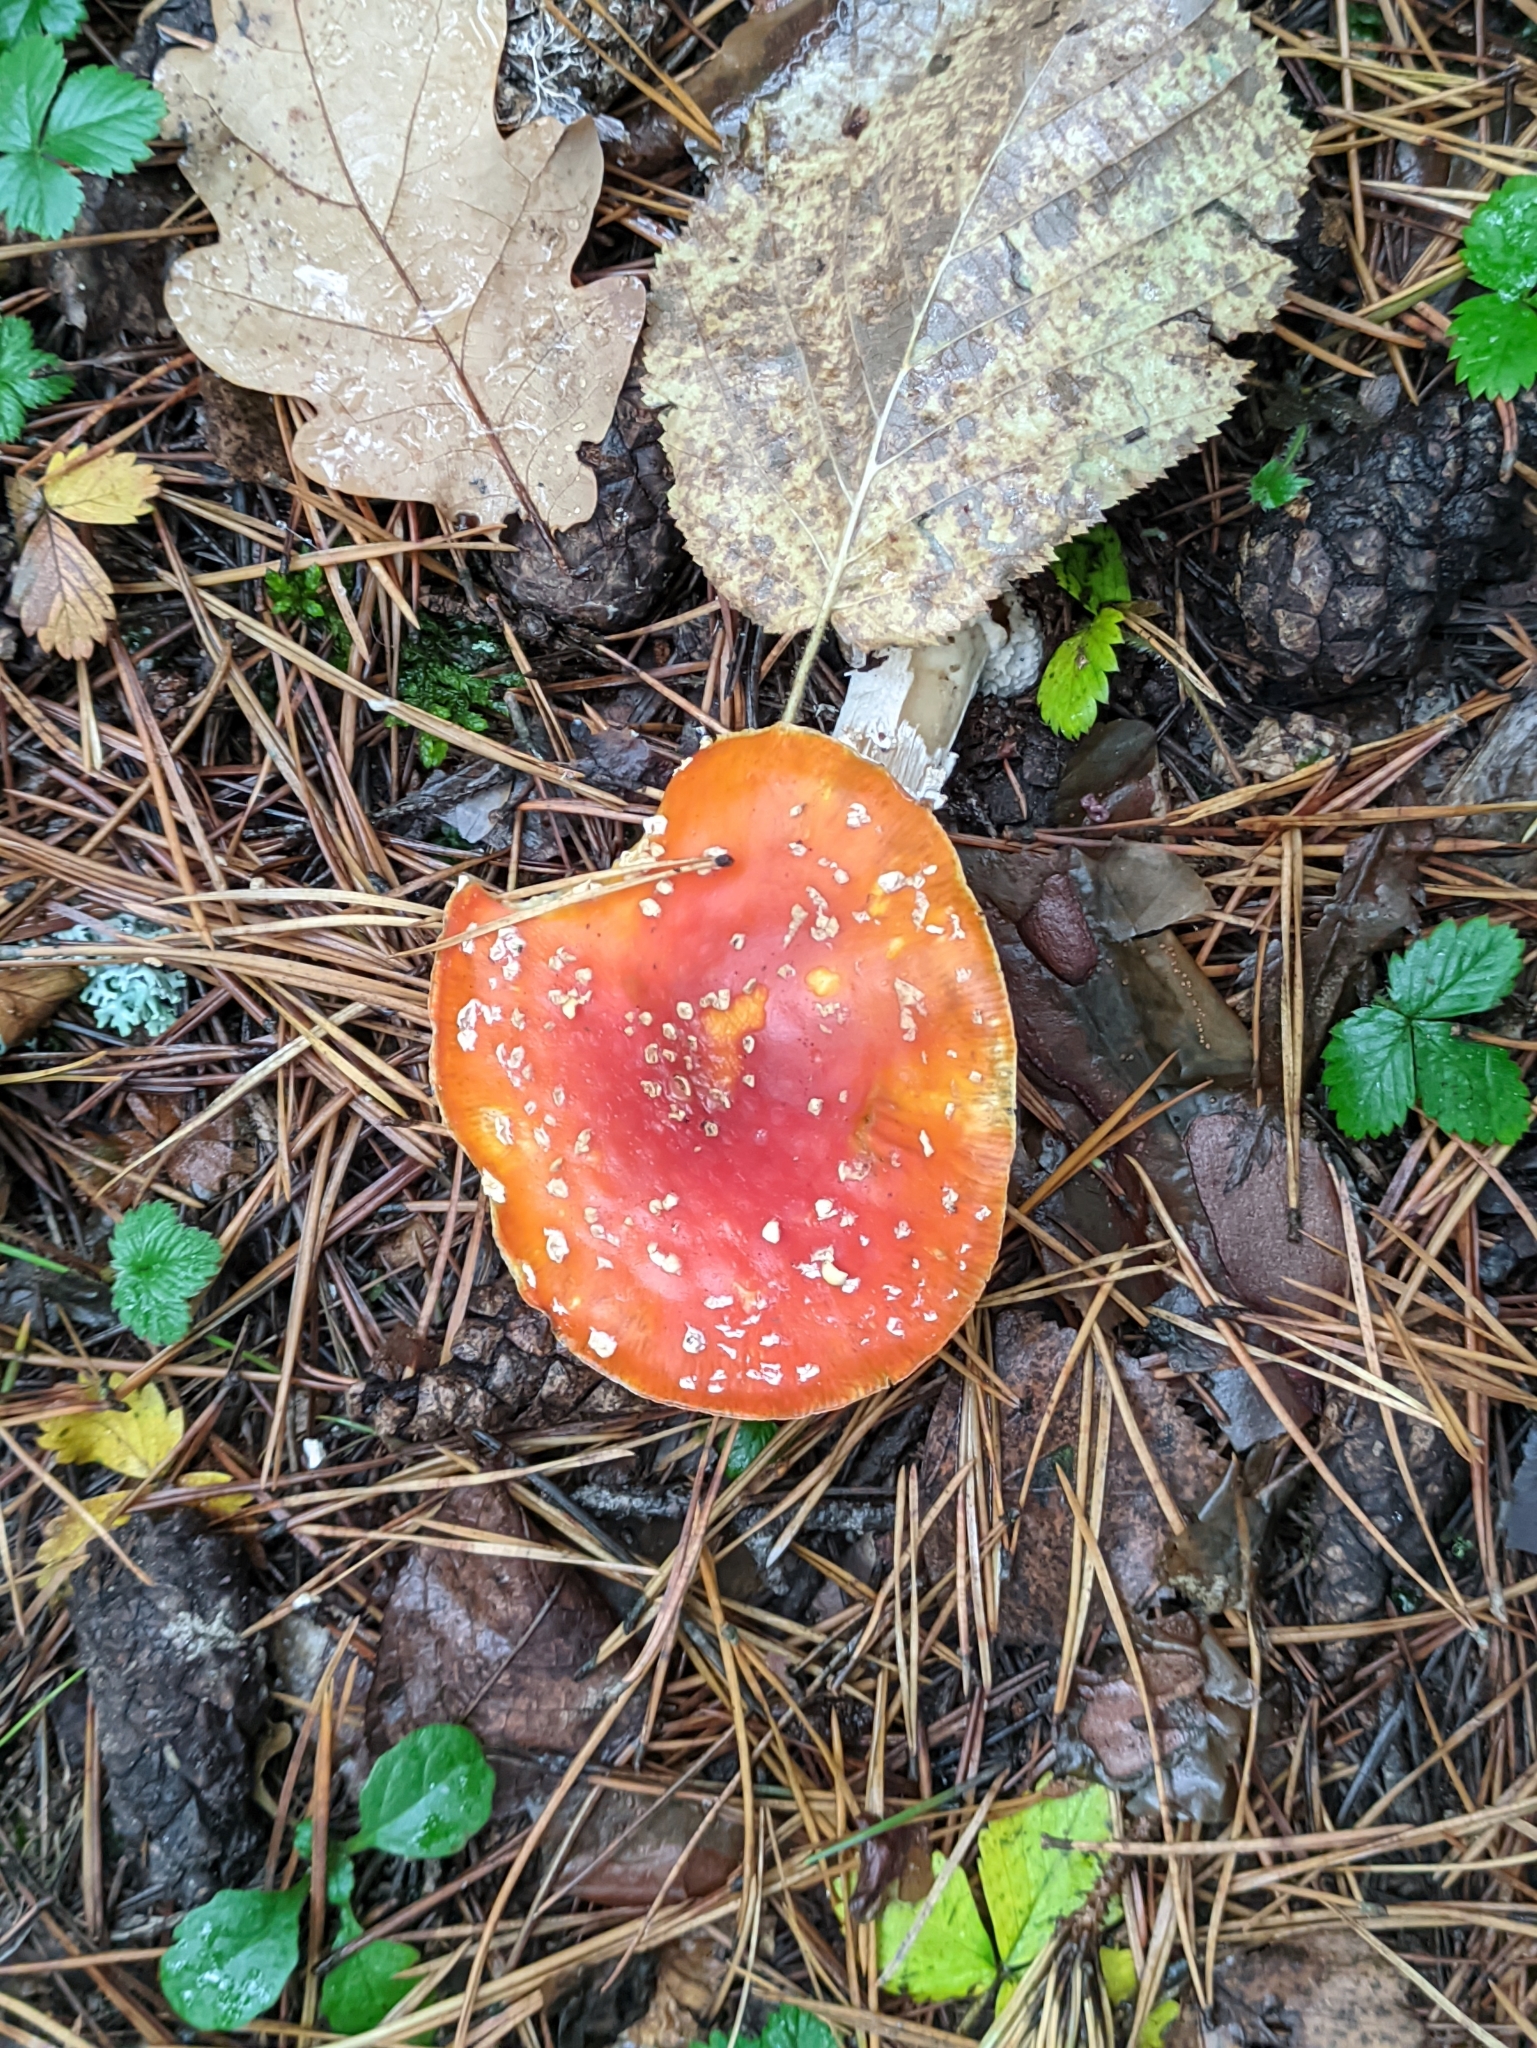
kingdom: Fungi
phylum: Basidiomycota
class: Agaricomycetes
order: Agaricales
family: Amanitaceae
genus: Amanita
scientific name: Amanita muscaria
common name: Fly agaric
